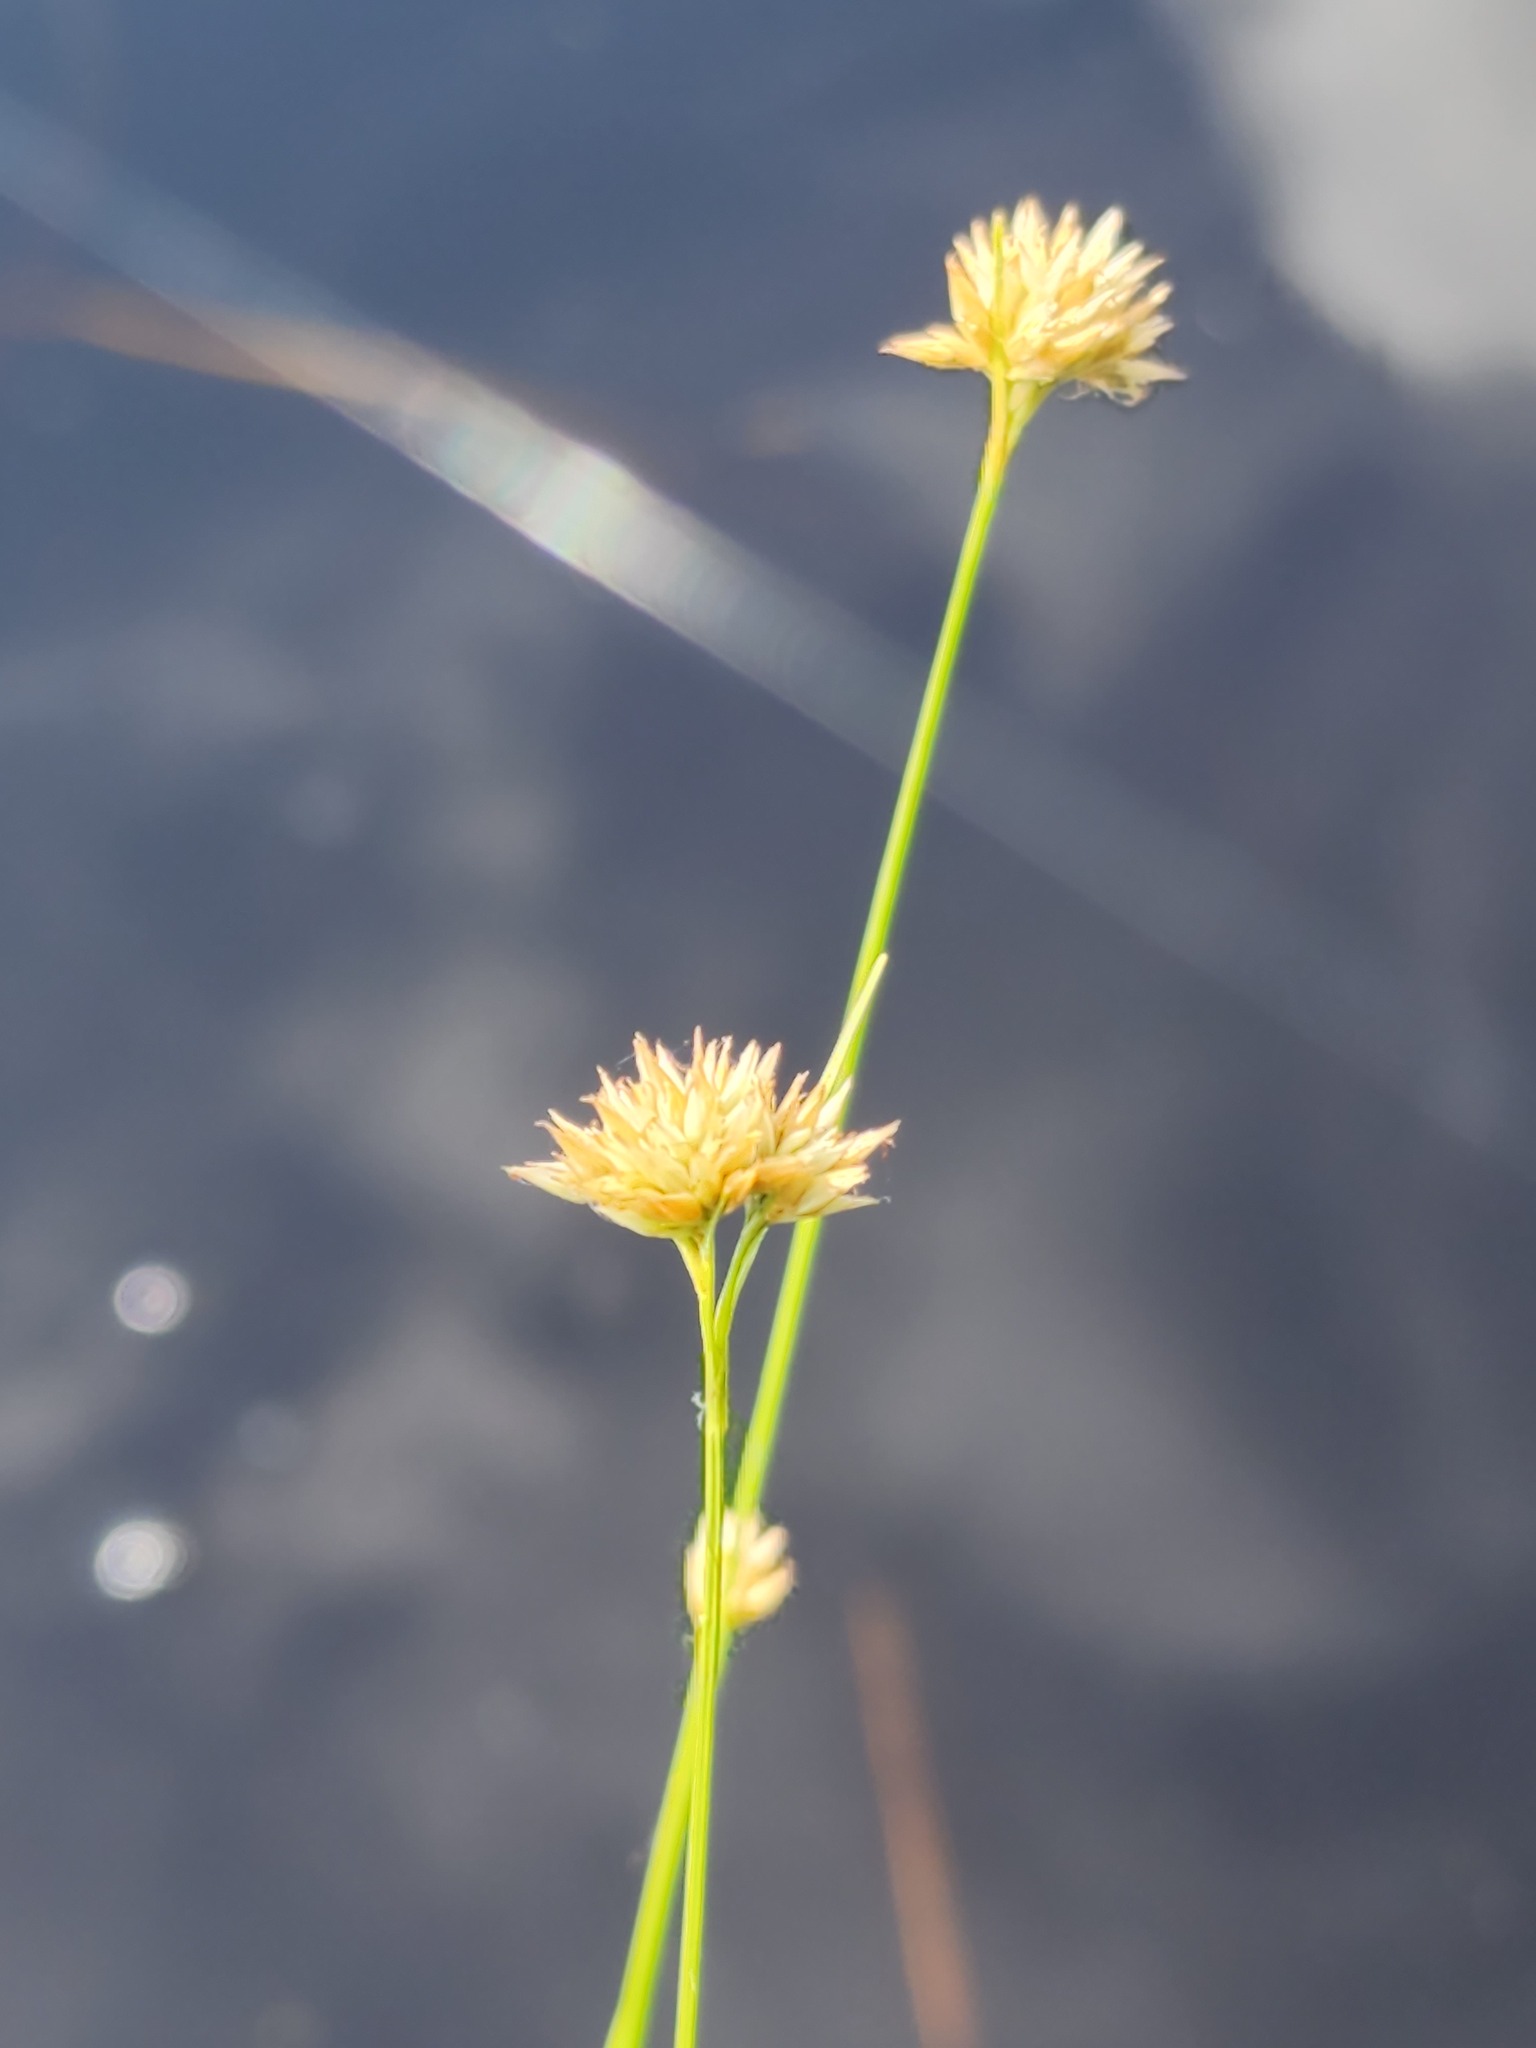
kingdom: Plantae
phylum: Tracheophyta
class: Liliopsida
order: Poales
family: Cyperaceae
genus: Rhynchospora
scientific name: Rhynchospora alba
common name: White beak-sedge
